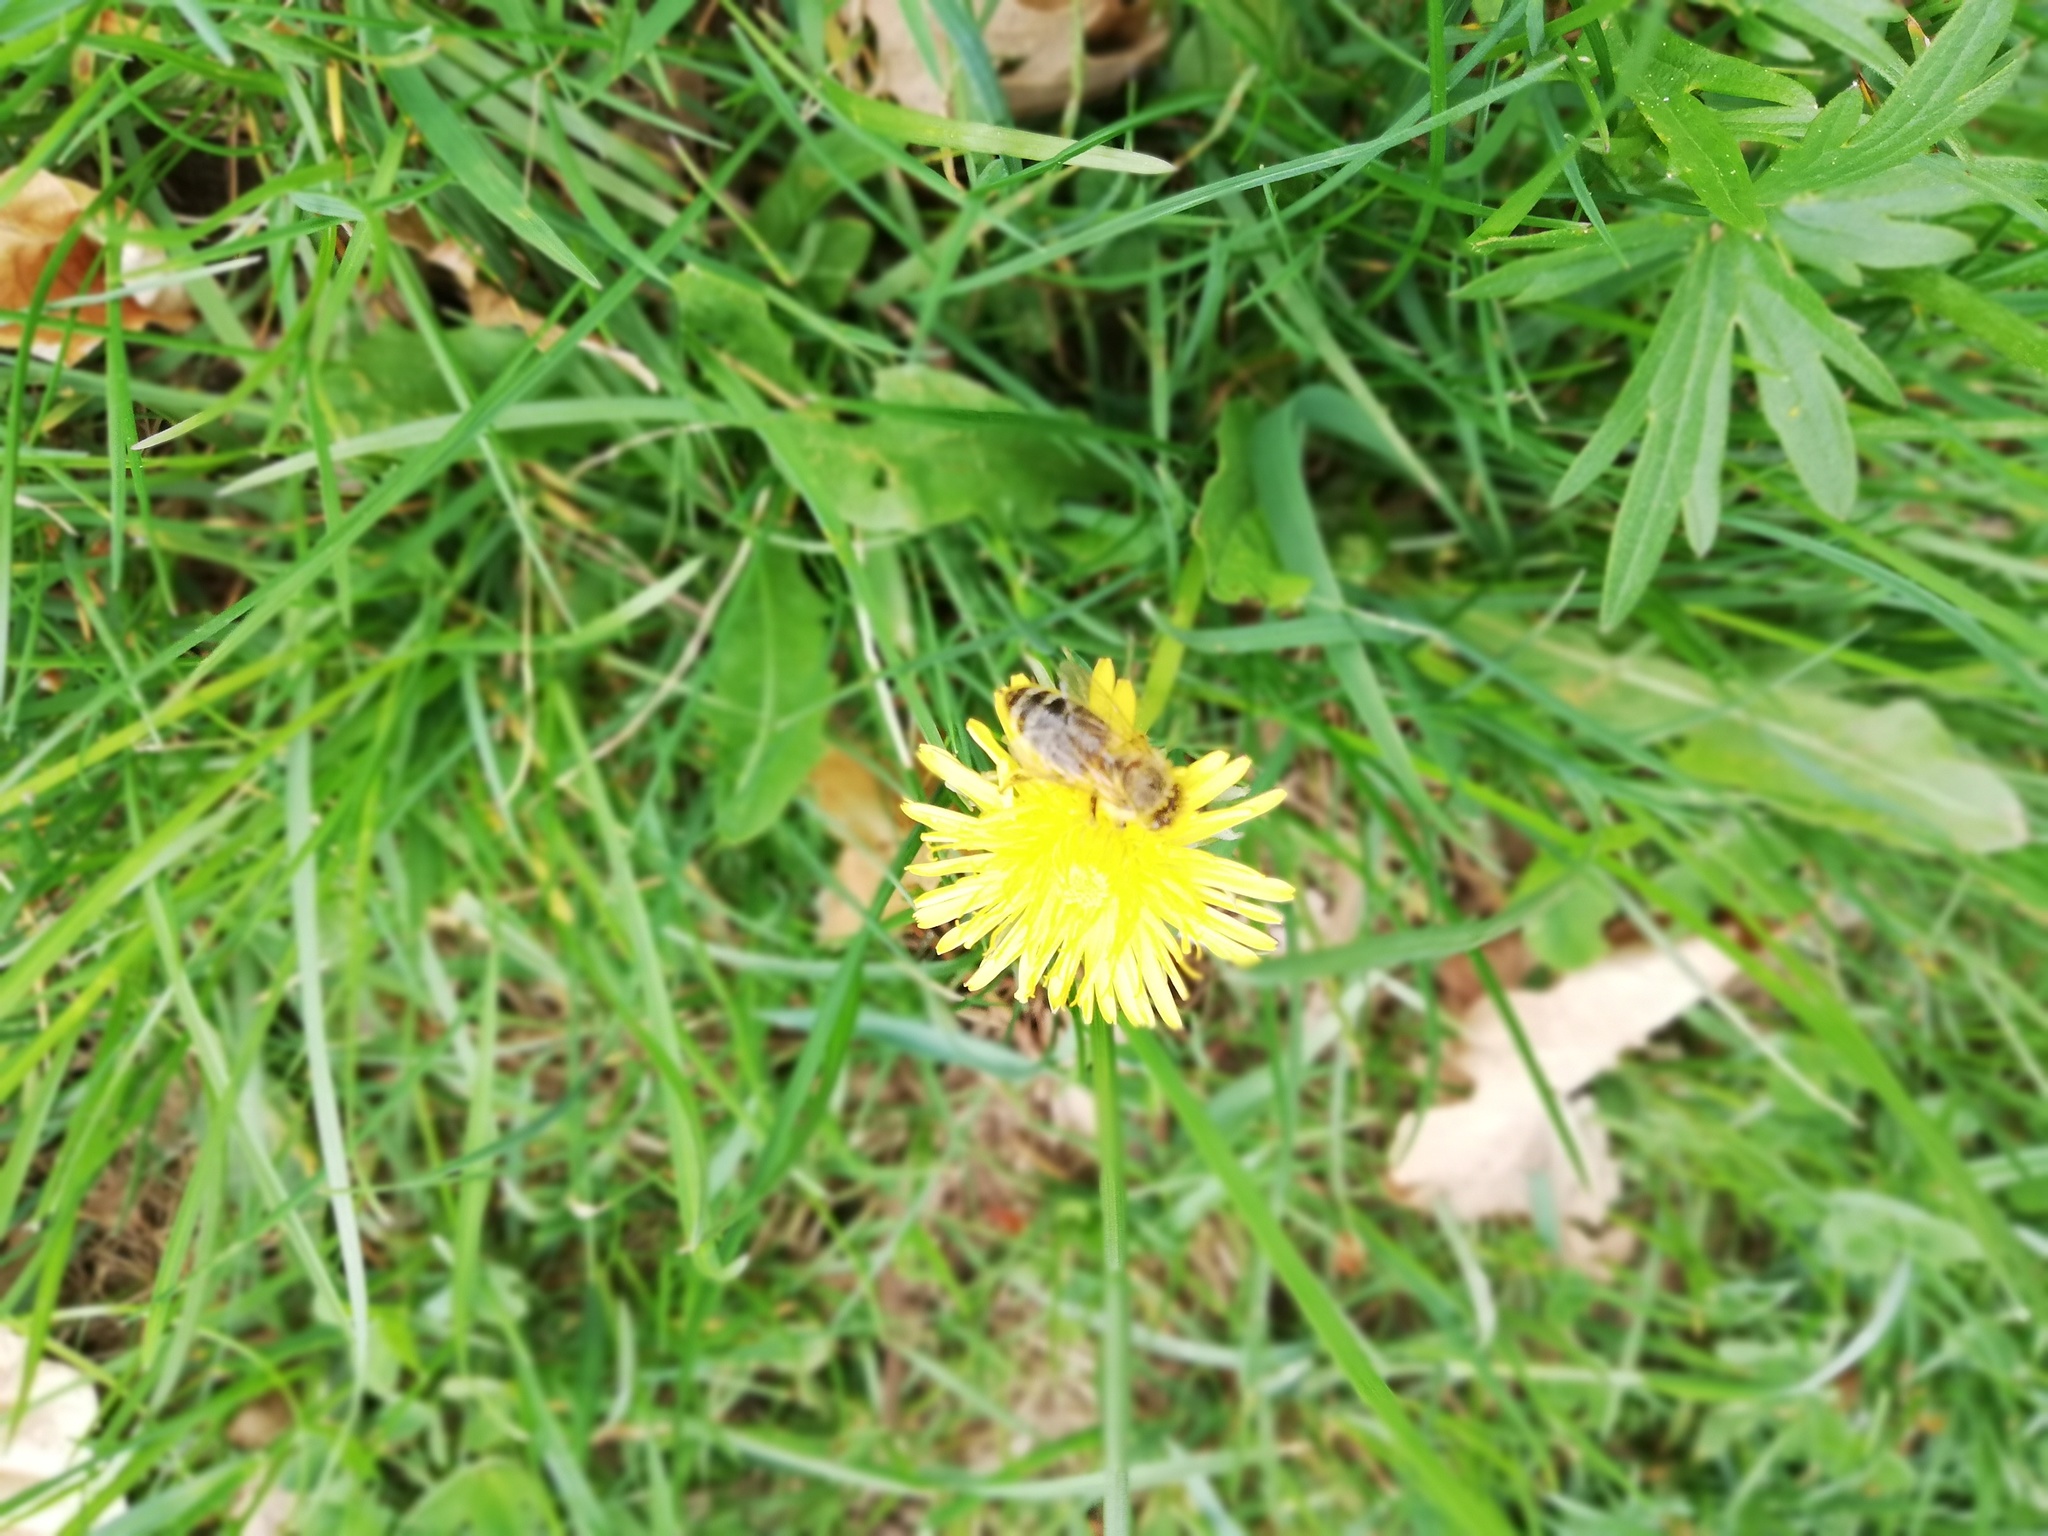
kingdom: Animalia
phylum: Arthropoda
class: Insecta
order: Hymenoptera
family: Apidae
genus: Apis
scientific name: Apis mellifera
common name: Honey bee
